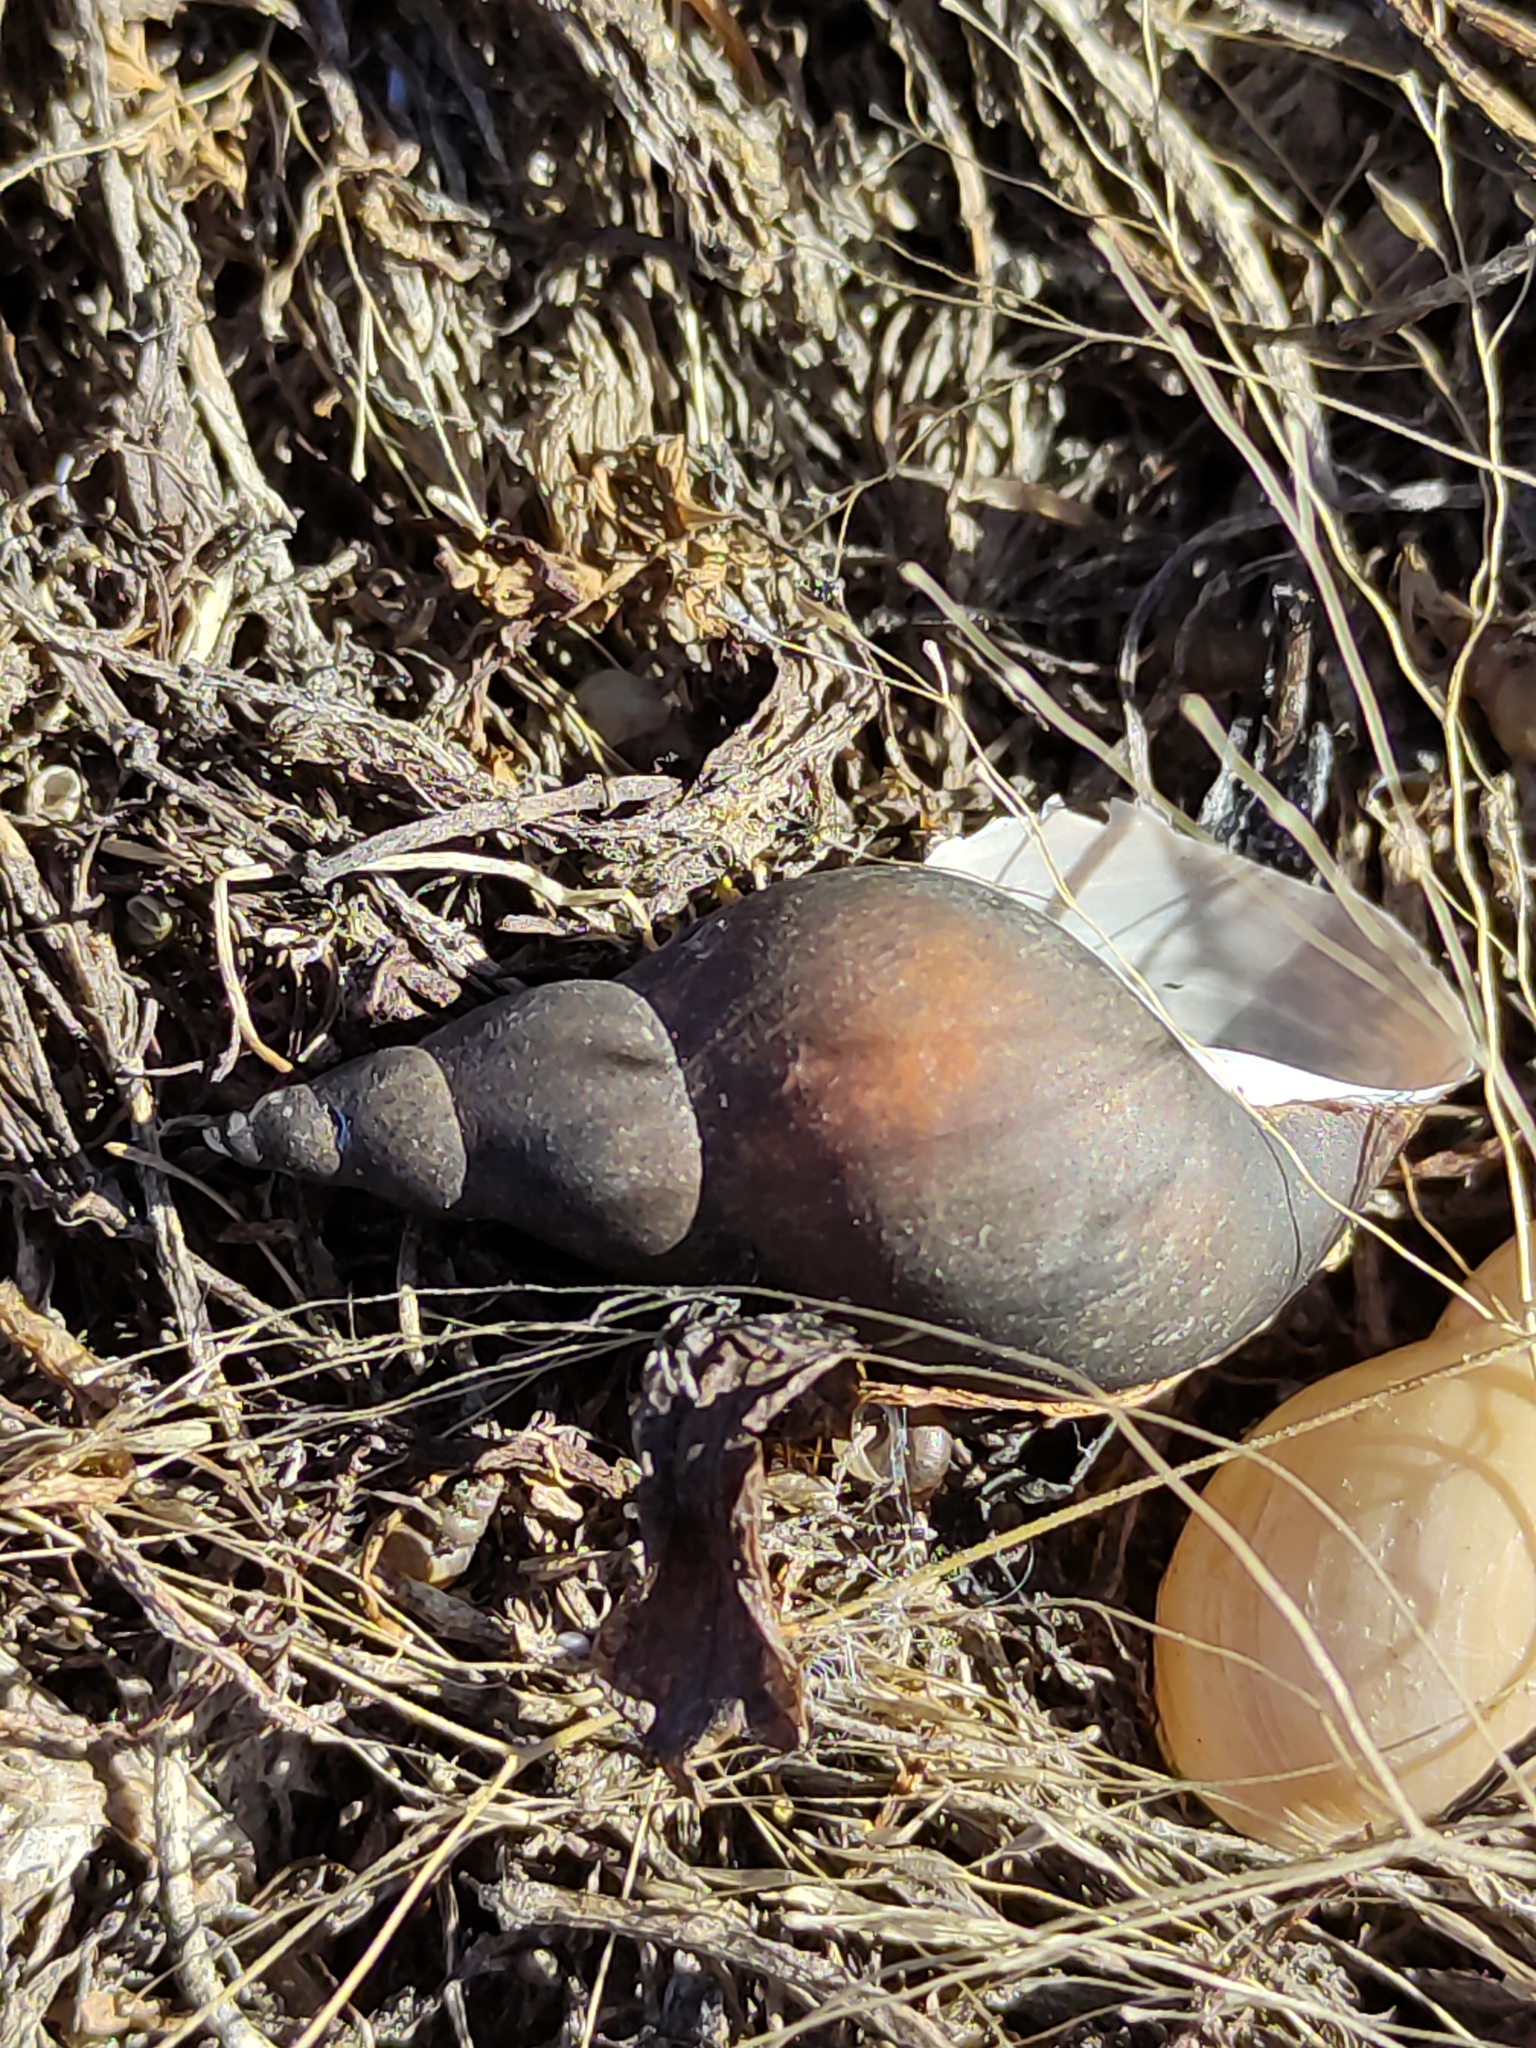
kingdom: Animalia
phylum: Mollusca
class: Gastropoda
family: Lymnaeidae
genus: Lymnaea
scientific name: Lymnaea stagnalis
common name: Great pond snail
